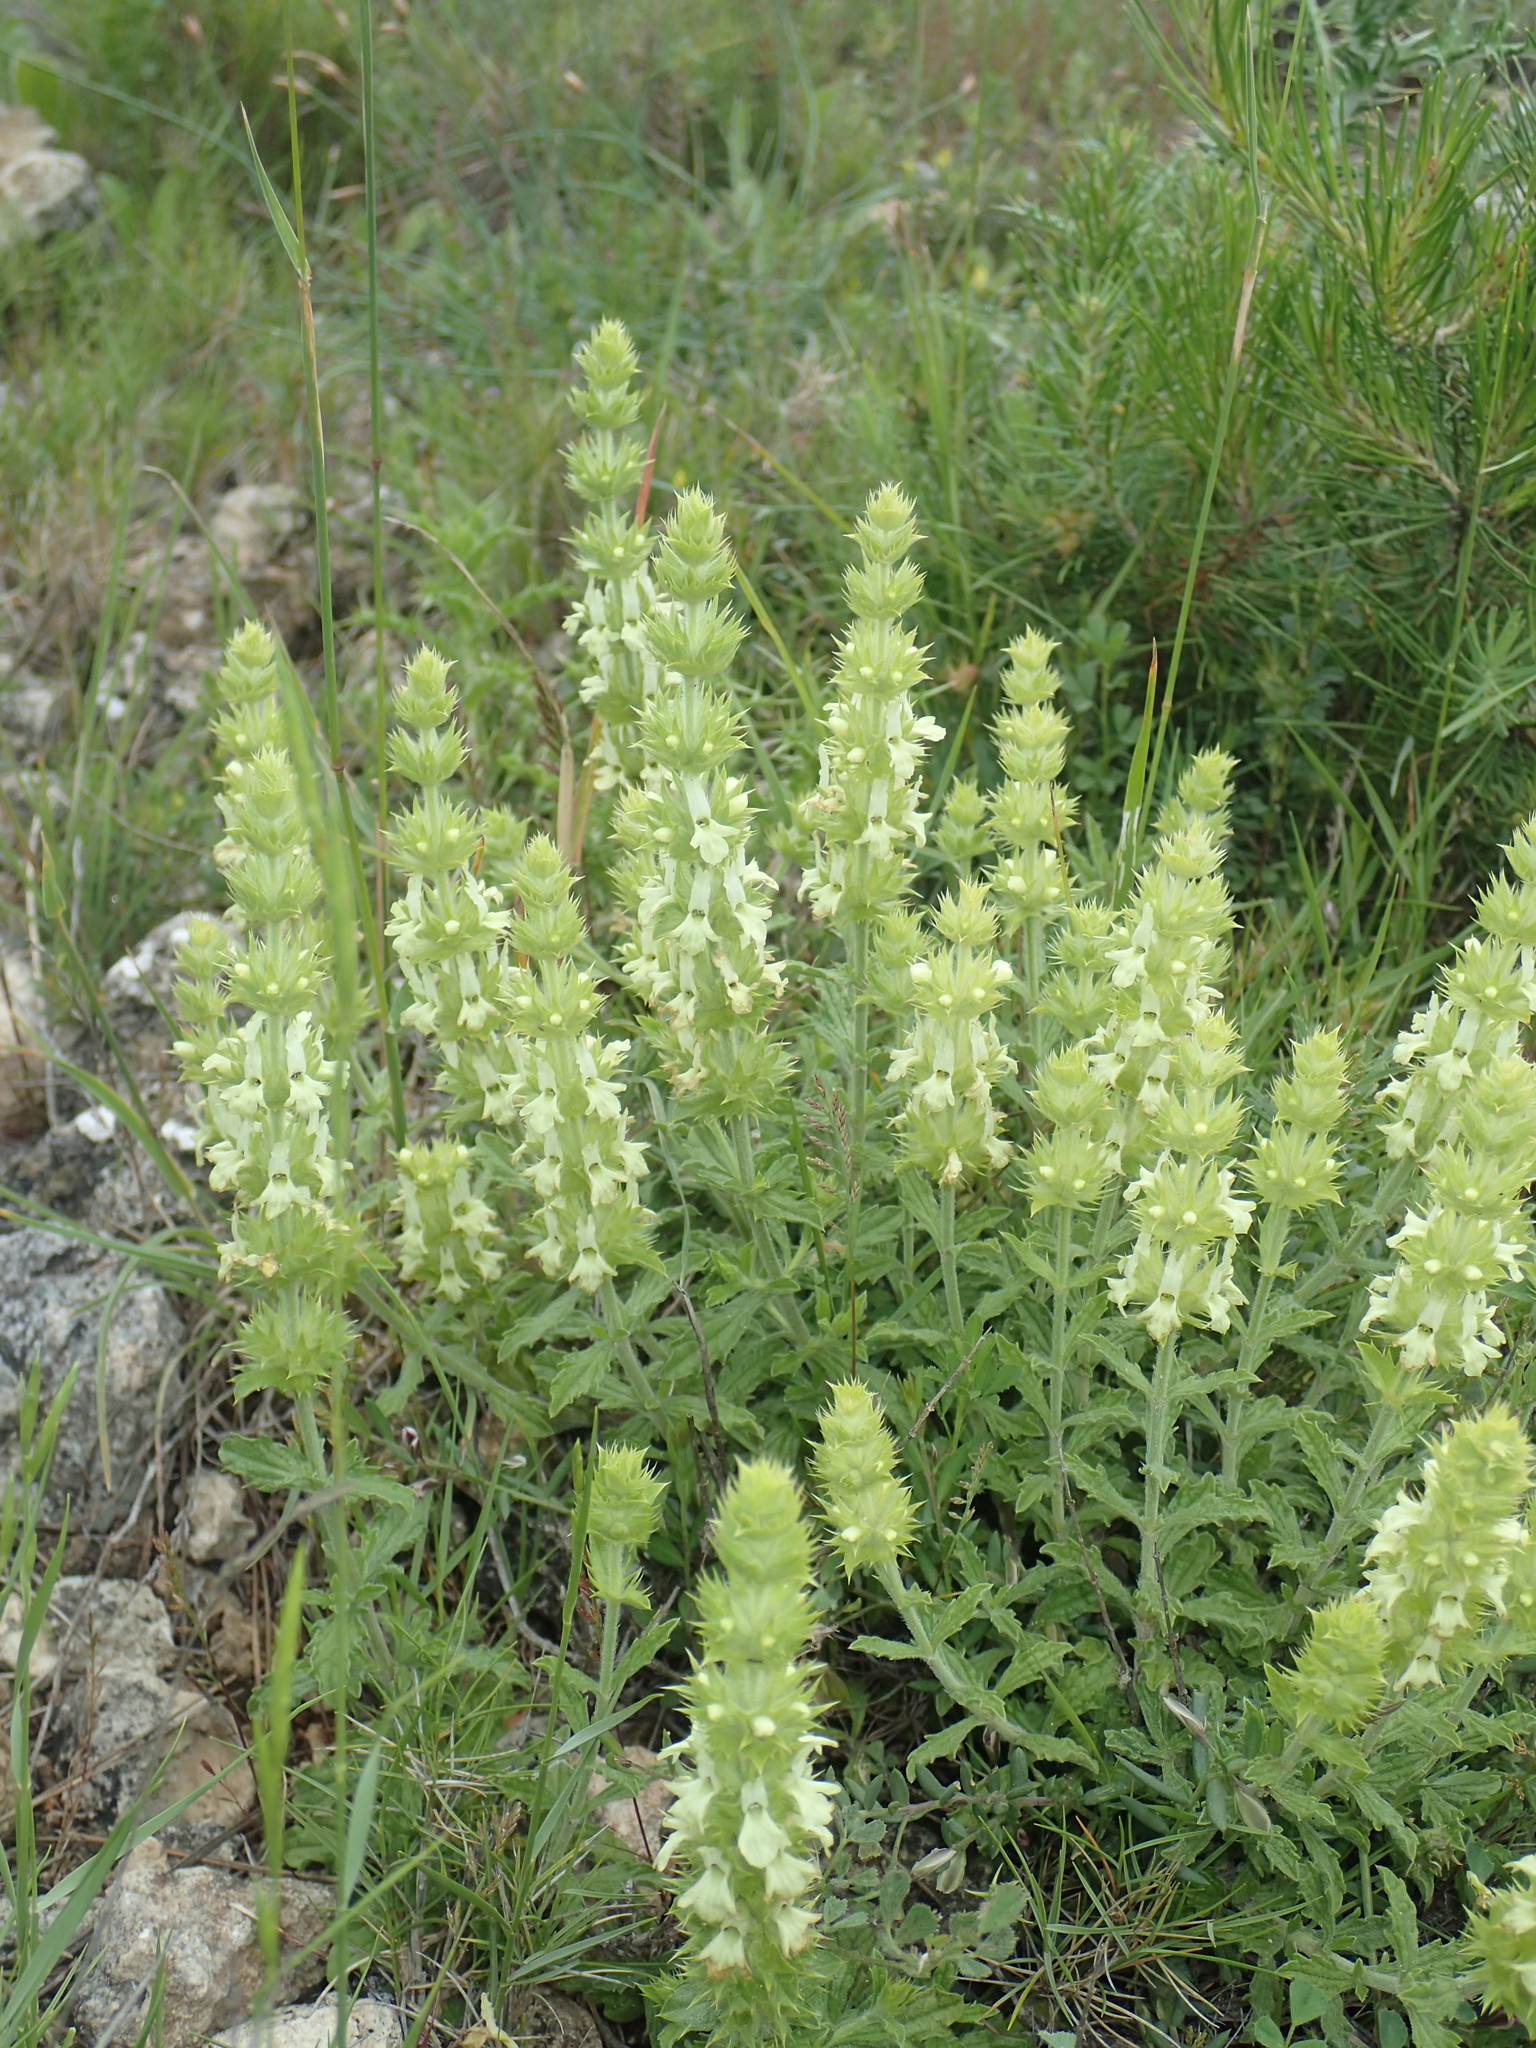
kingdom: Plantae
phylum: Tracheophyta
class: Magnoliopsida
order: Lamiales
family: Lamiaceae
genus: Sideritis
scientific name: Sideritis fruticulosa
